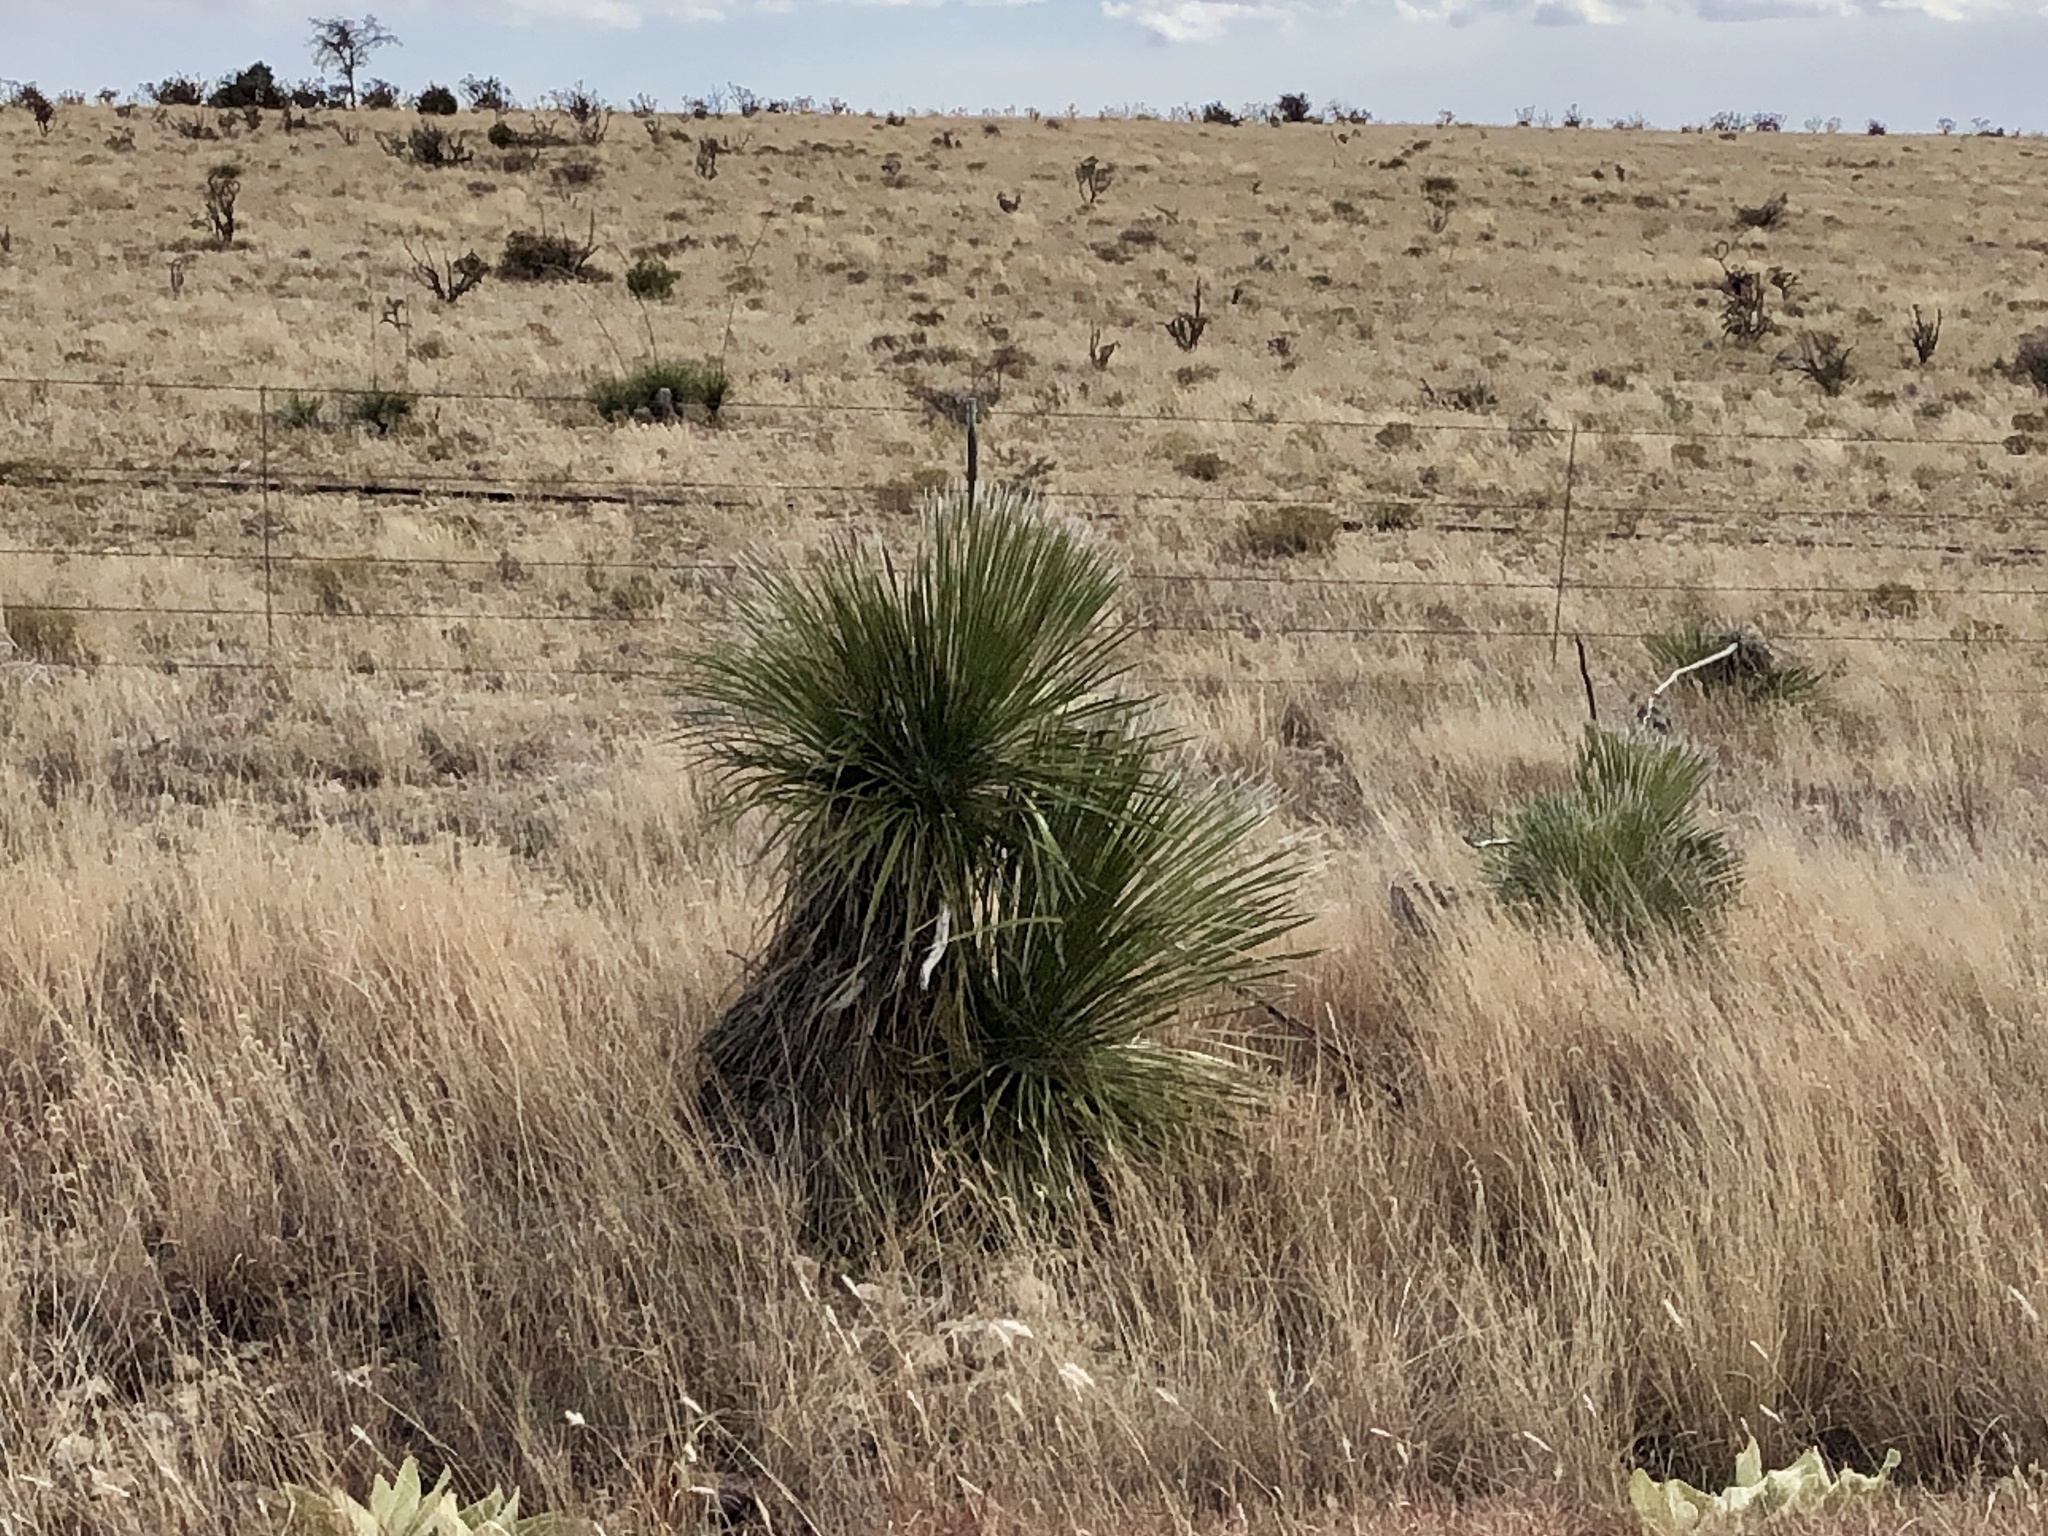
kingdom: Plantae
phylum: Tracheophyta
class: Liliopsida
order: Asparagales
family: Asparagaceae
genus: Yucca
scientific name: Yucca elata
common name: Palmella
